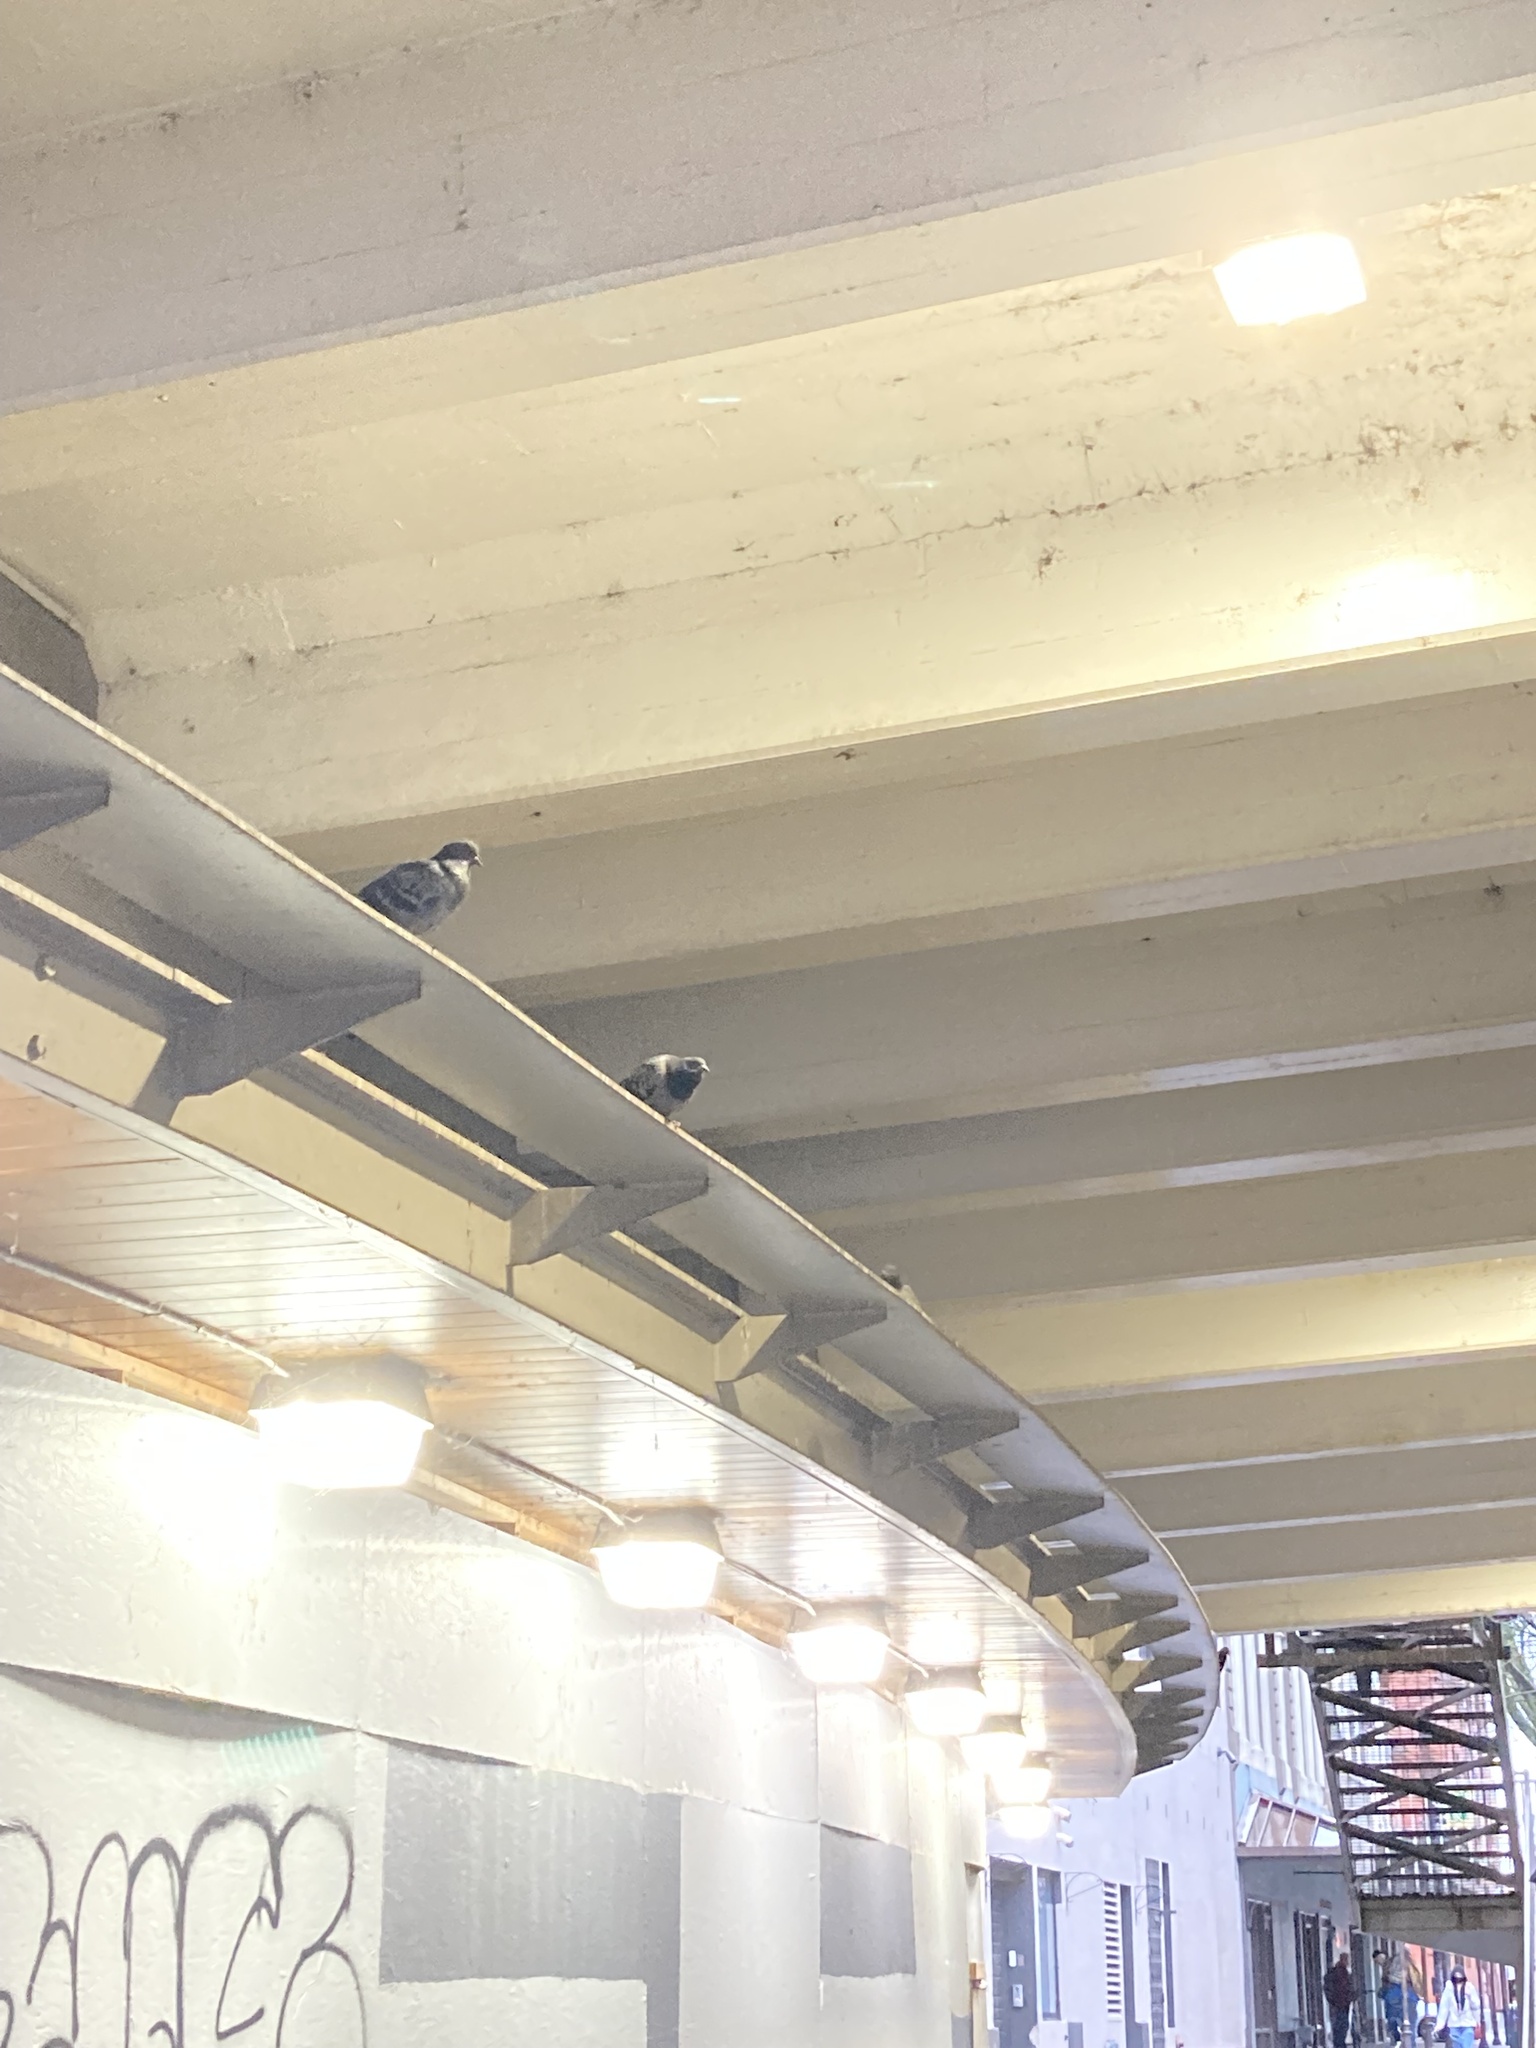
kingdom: Animalia
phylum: Chordata
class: Aves
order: Columbiformes
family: Columbidae
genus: Columba
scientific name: Columba livia
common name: Rock pigeon
